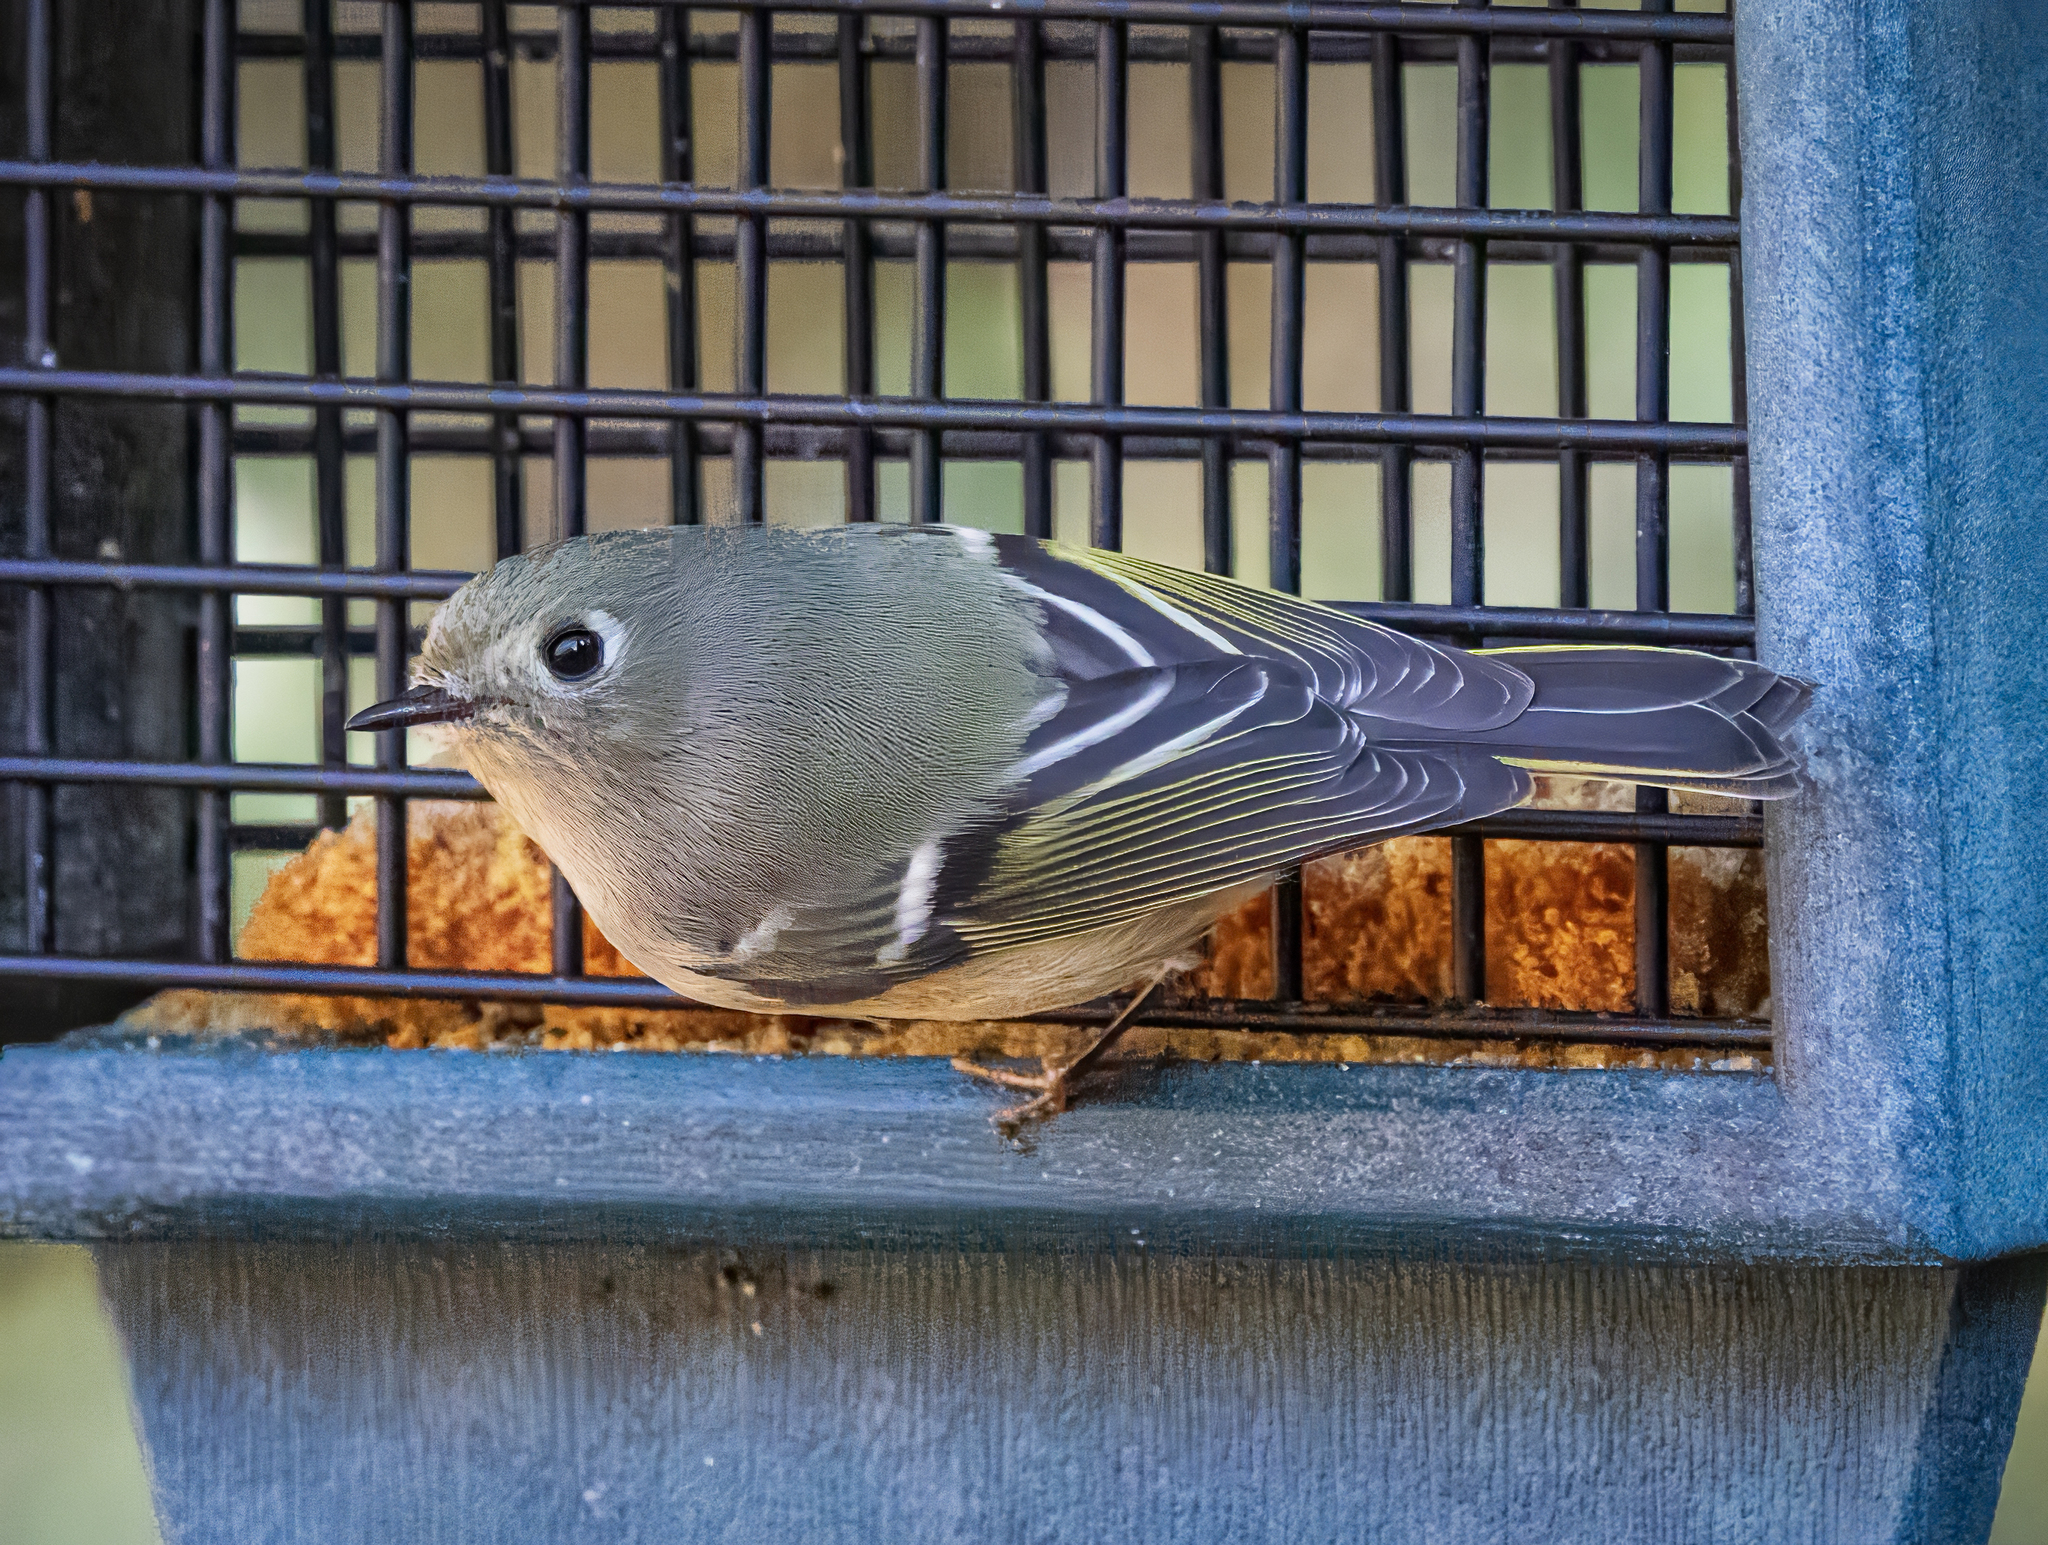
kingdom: Animalia
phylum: Chordata
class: Aves
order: Passeriformes
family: Regulidae
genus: Regulus
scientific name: Regulus calendula
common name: Ruby-crowned kinglet
